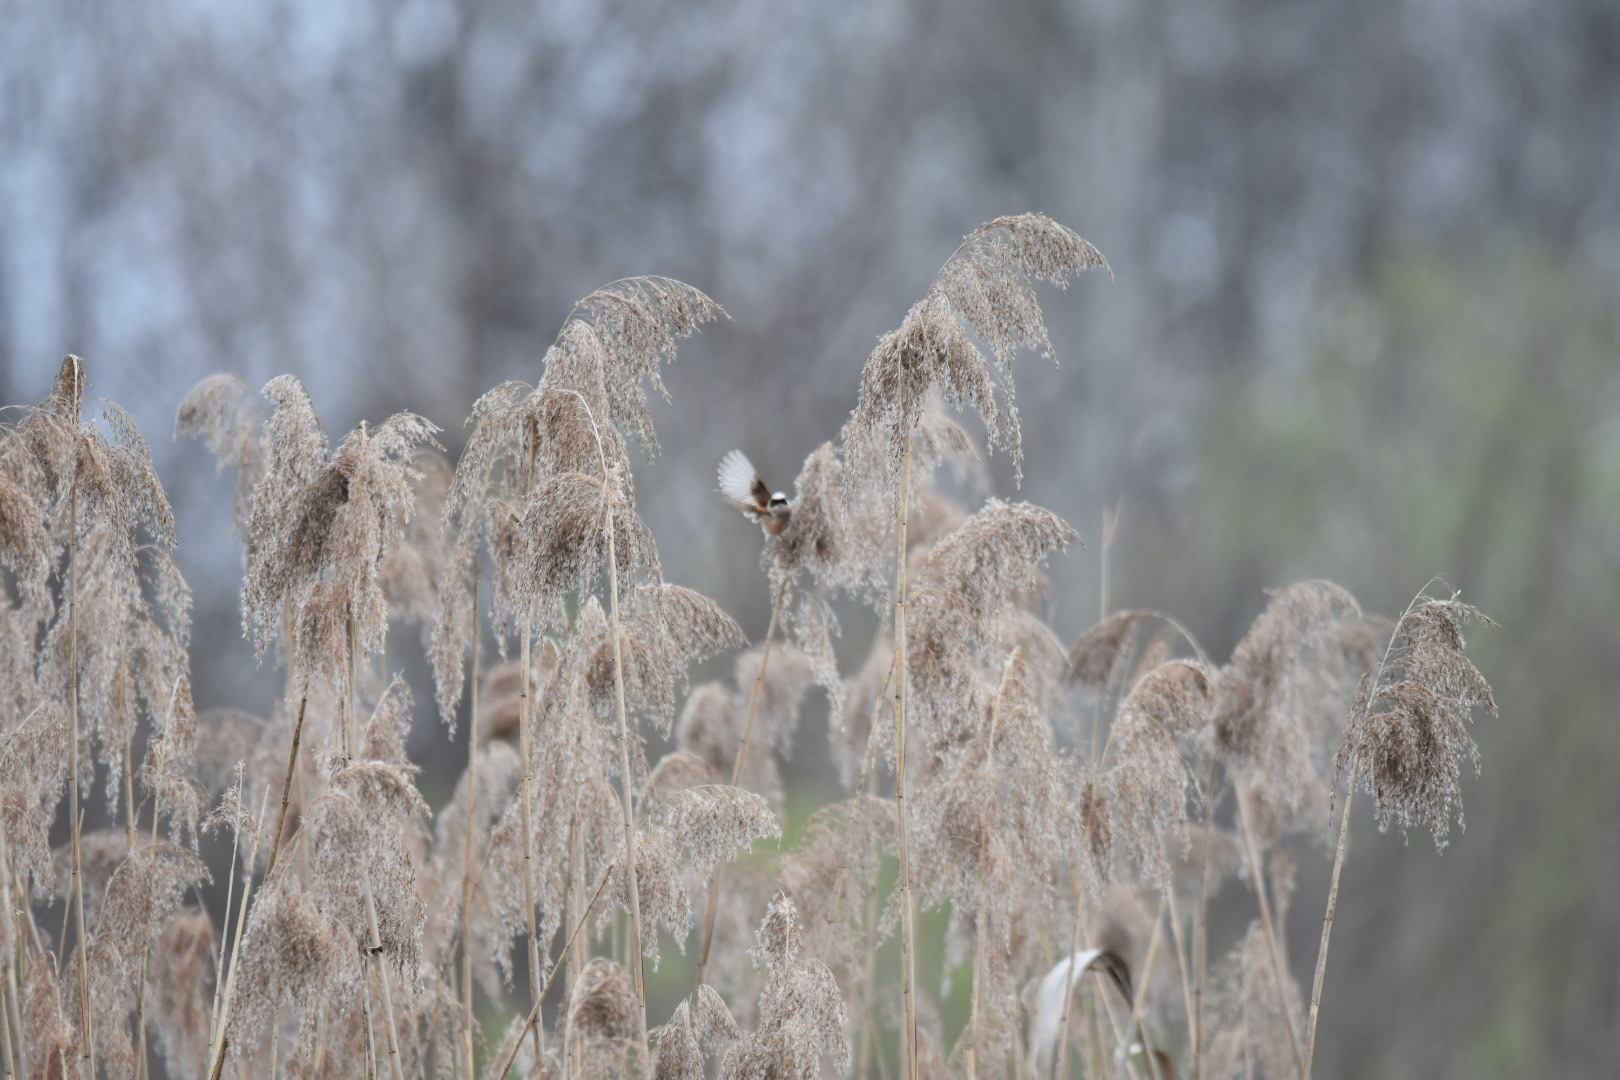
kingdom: Animalia
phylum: Chordata
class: Aves
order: Passeriformes
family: Remizidae
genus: Remiz
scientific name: Remiz pendulinus
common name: Eurasian penduline tit
